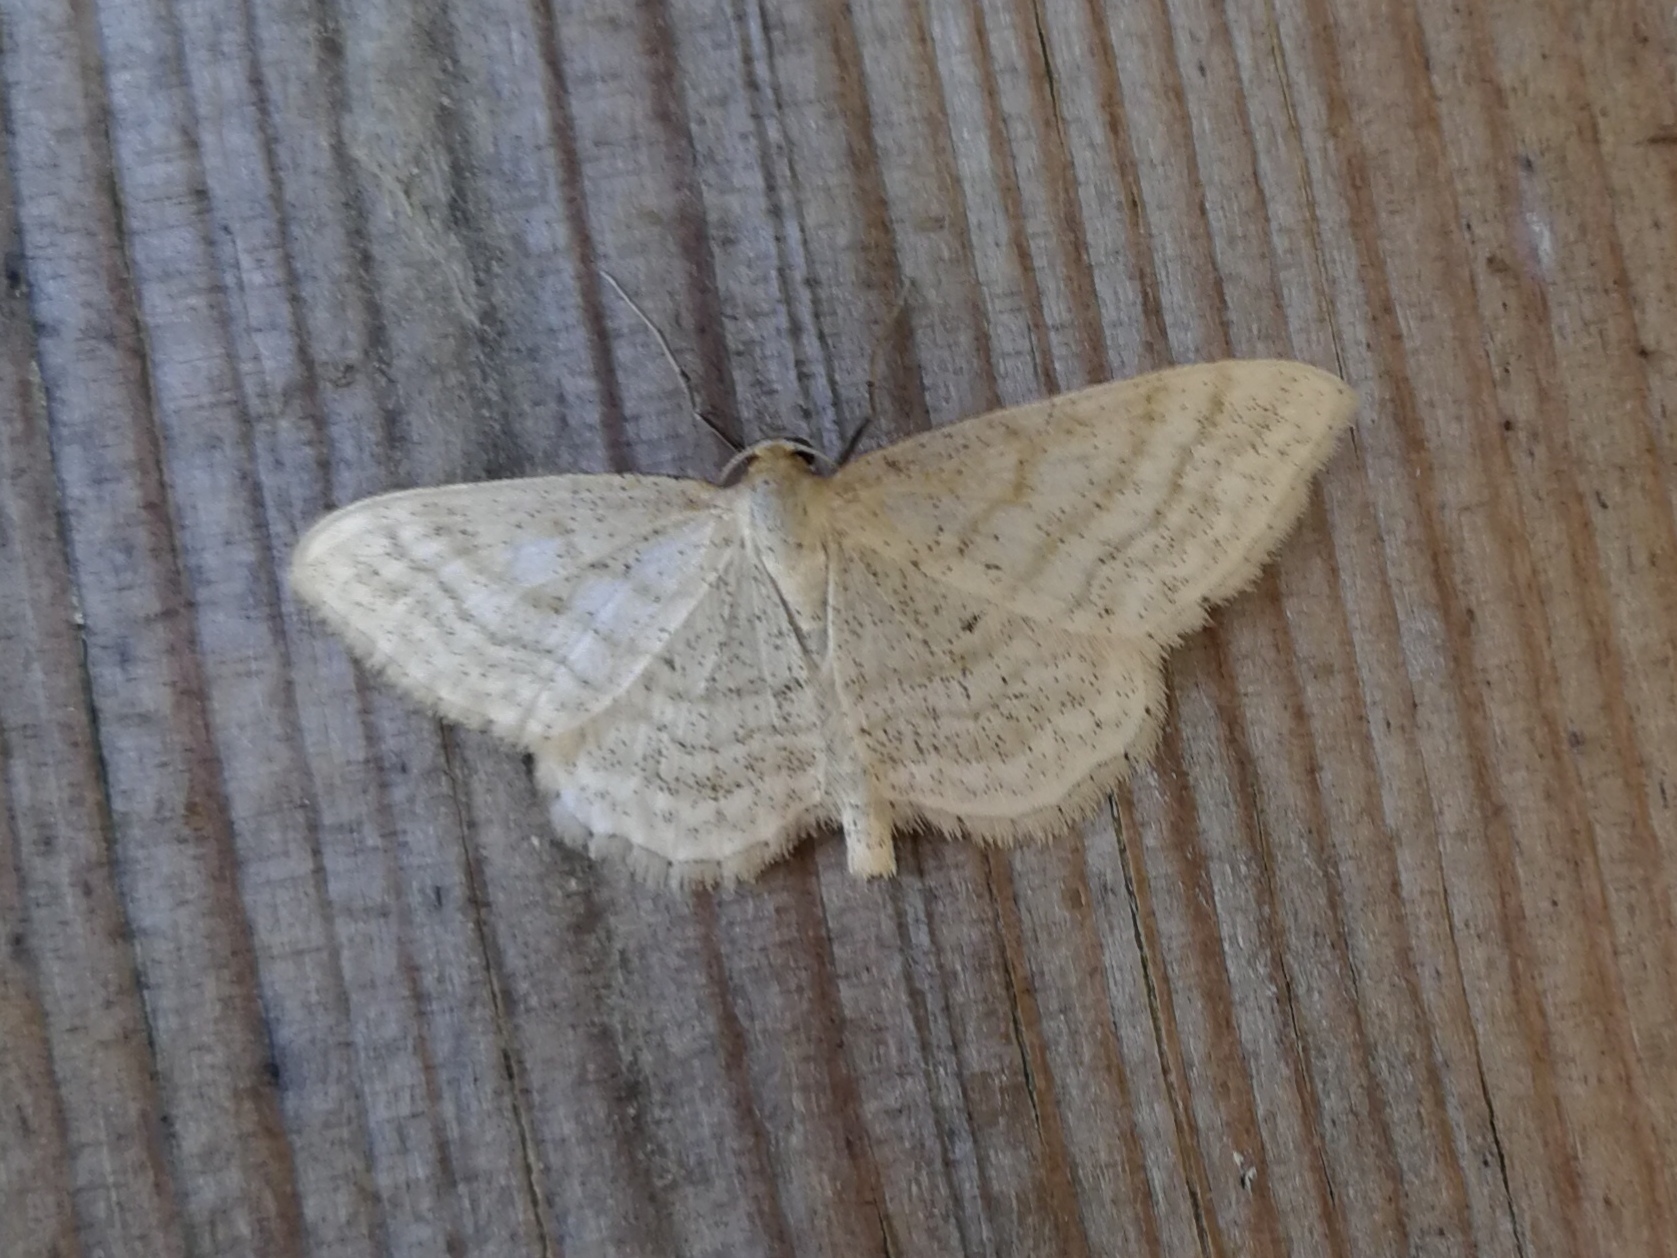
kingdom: Animalia
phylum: Arthropoda
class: Insecta
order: Lepidoptera
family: Geometridae
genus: Idaea
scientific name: Idaea antiquaria
